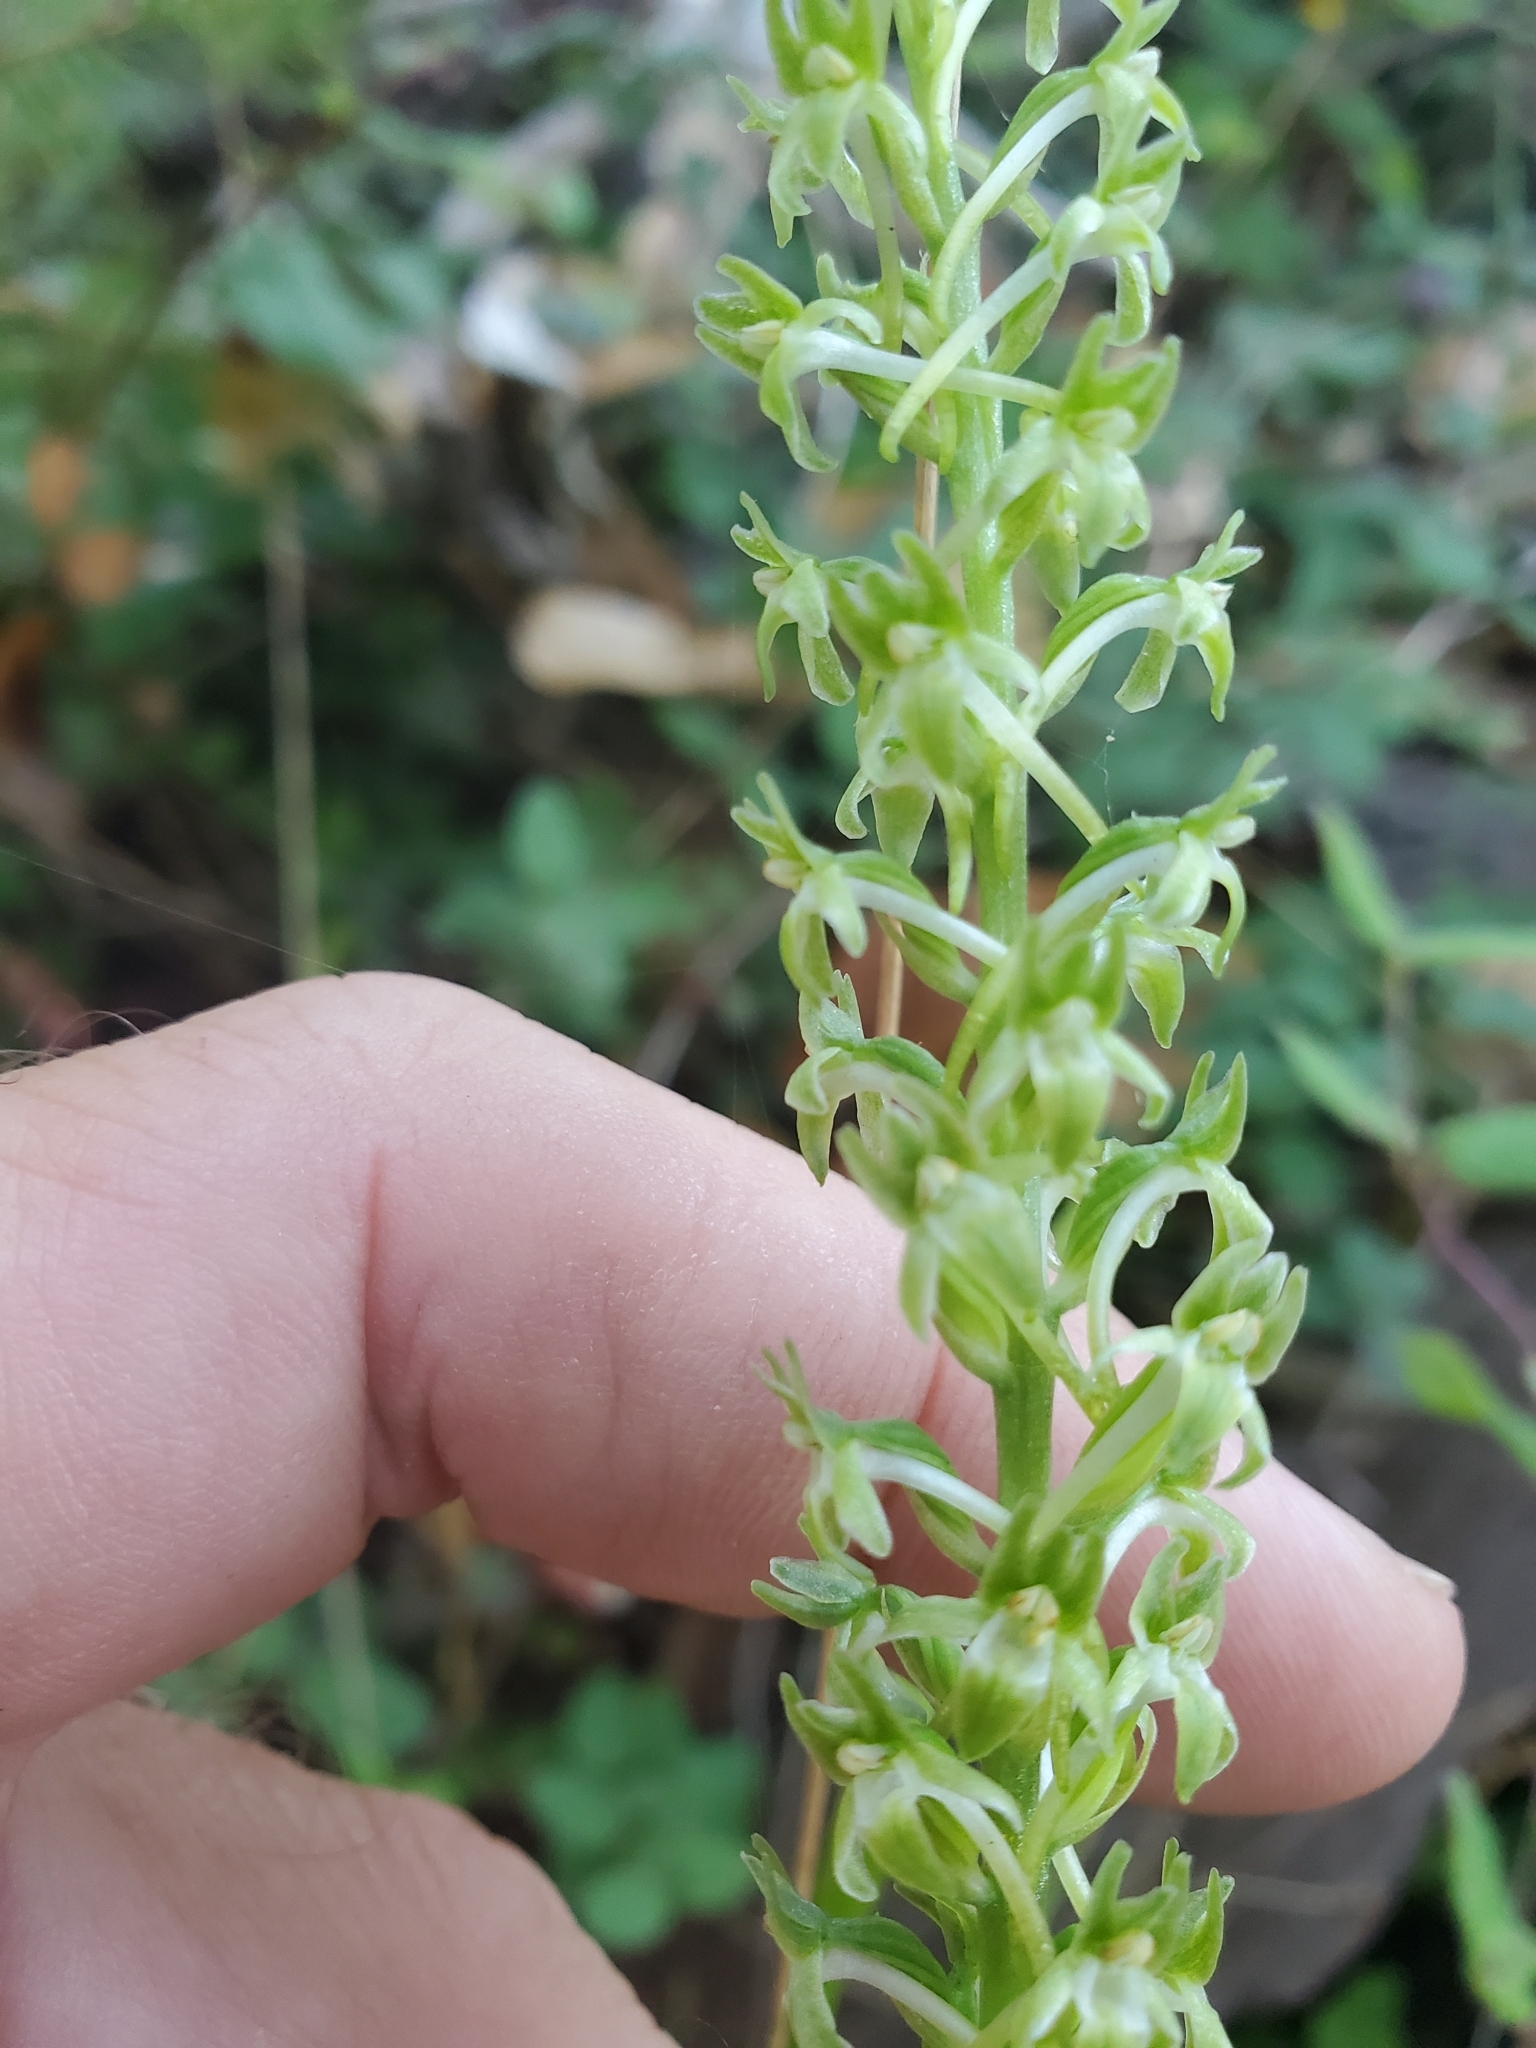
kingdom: Plantae
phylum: Tracheophyta
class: Liliopsida
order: Asparagales
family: Orchidaceae
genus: Platanthera
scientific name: Platanthera elongata
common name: Dense-flowered rein orchid
